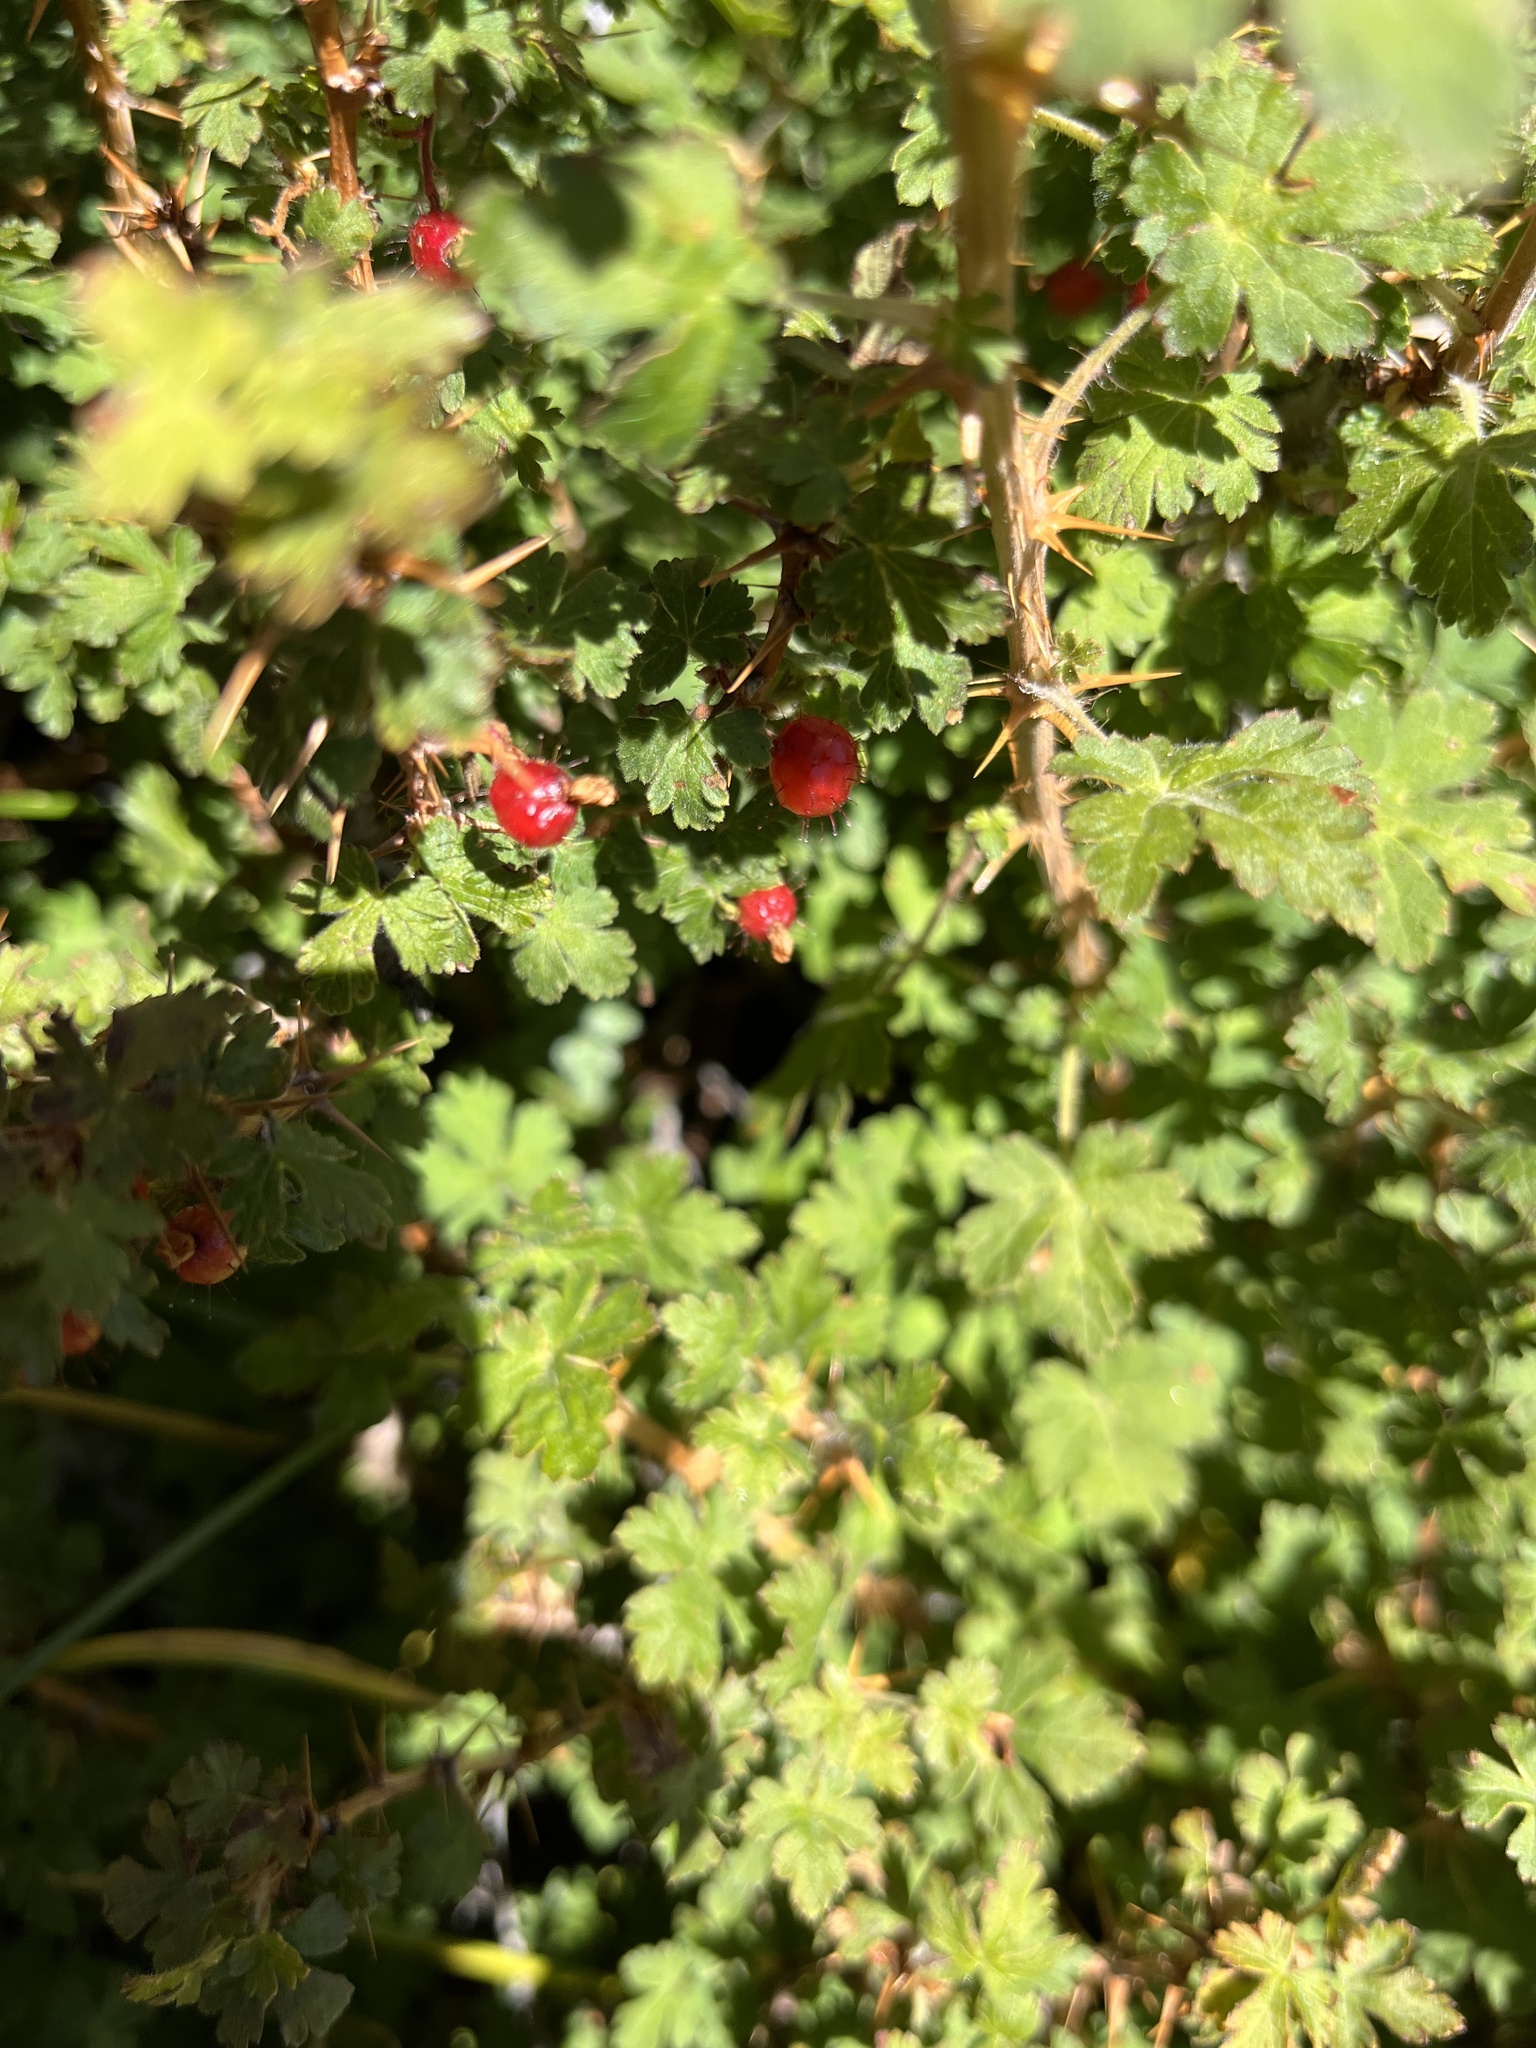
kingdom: Plantae
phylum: Tracheophyta
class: Magnoliopsida
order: Saxifragales
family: Grossulariaceae
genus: Ribes
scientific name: Ribes montigenum
